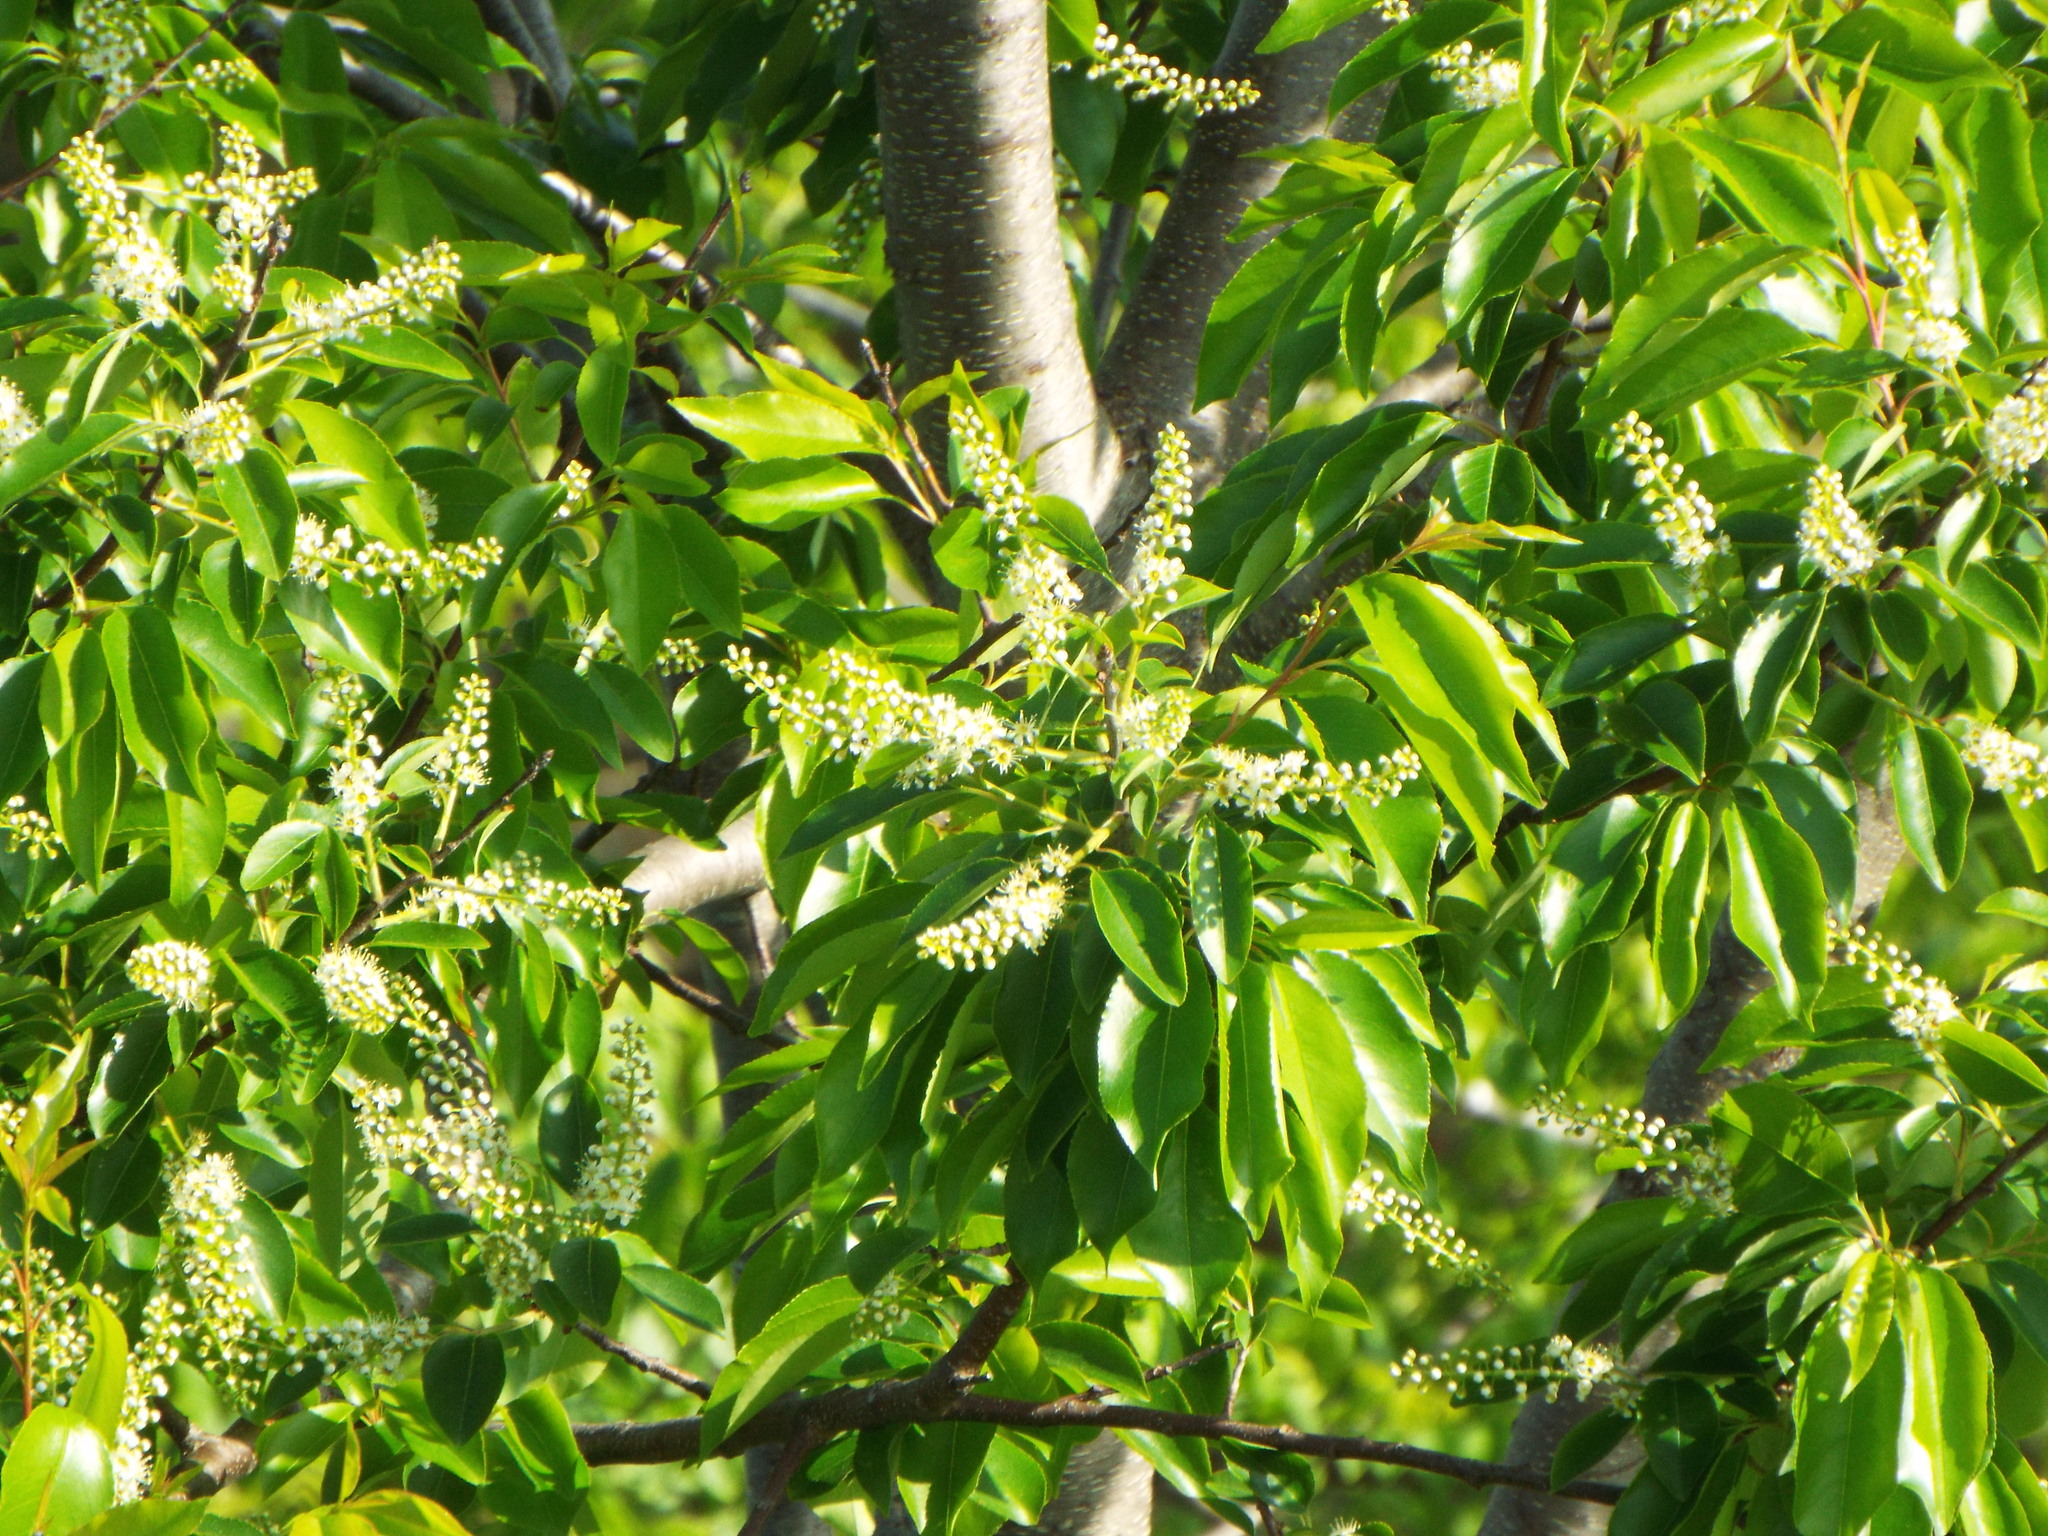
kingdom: Plantae
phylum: Tracheophyta
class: Magnoliopsida
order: Rosales
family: Rosaceae
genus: Prunus
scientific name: Prunus serotina
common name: Black cherry
